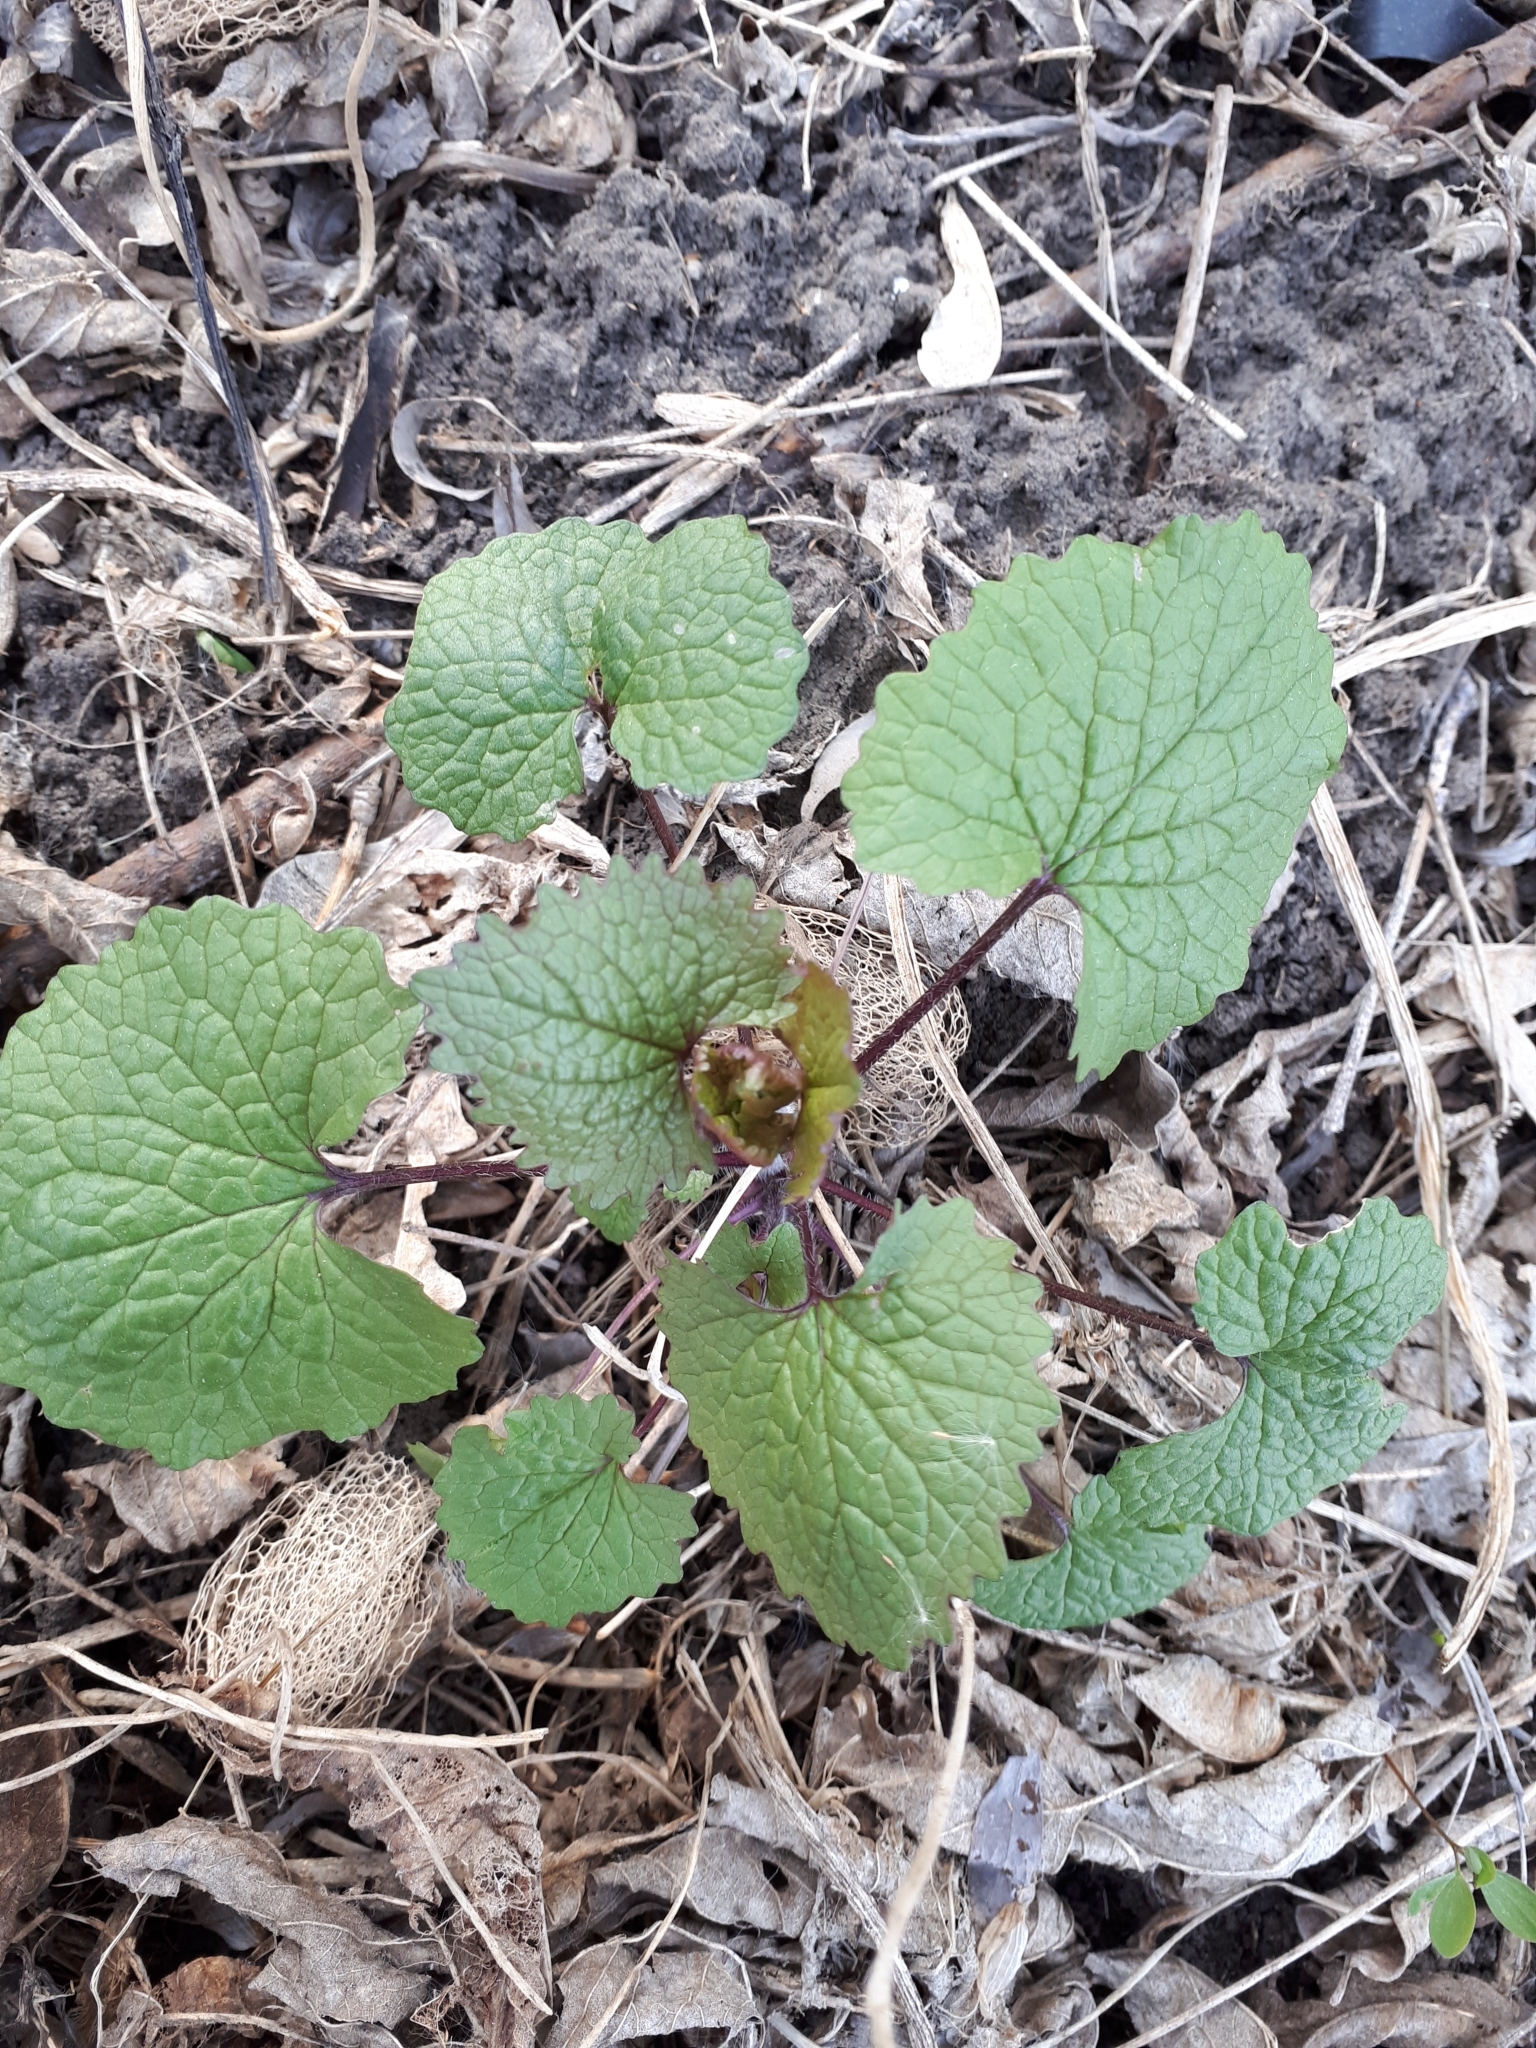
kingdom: Plantae
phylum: Tracheophyta
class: Magnoliopsida
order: Brassicales
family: Brassicaceae
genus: Alliaria
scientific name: Alliaria petiolata
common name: Garlic mustard
